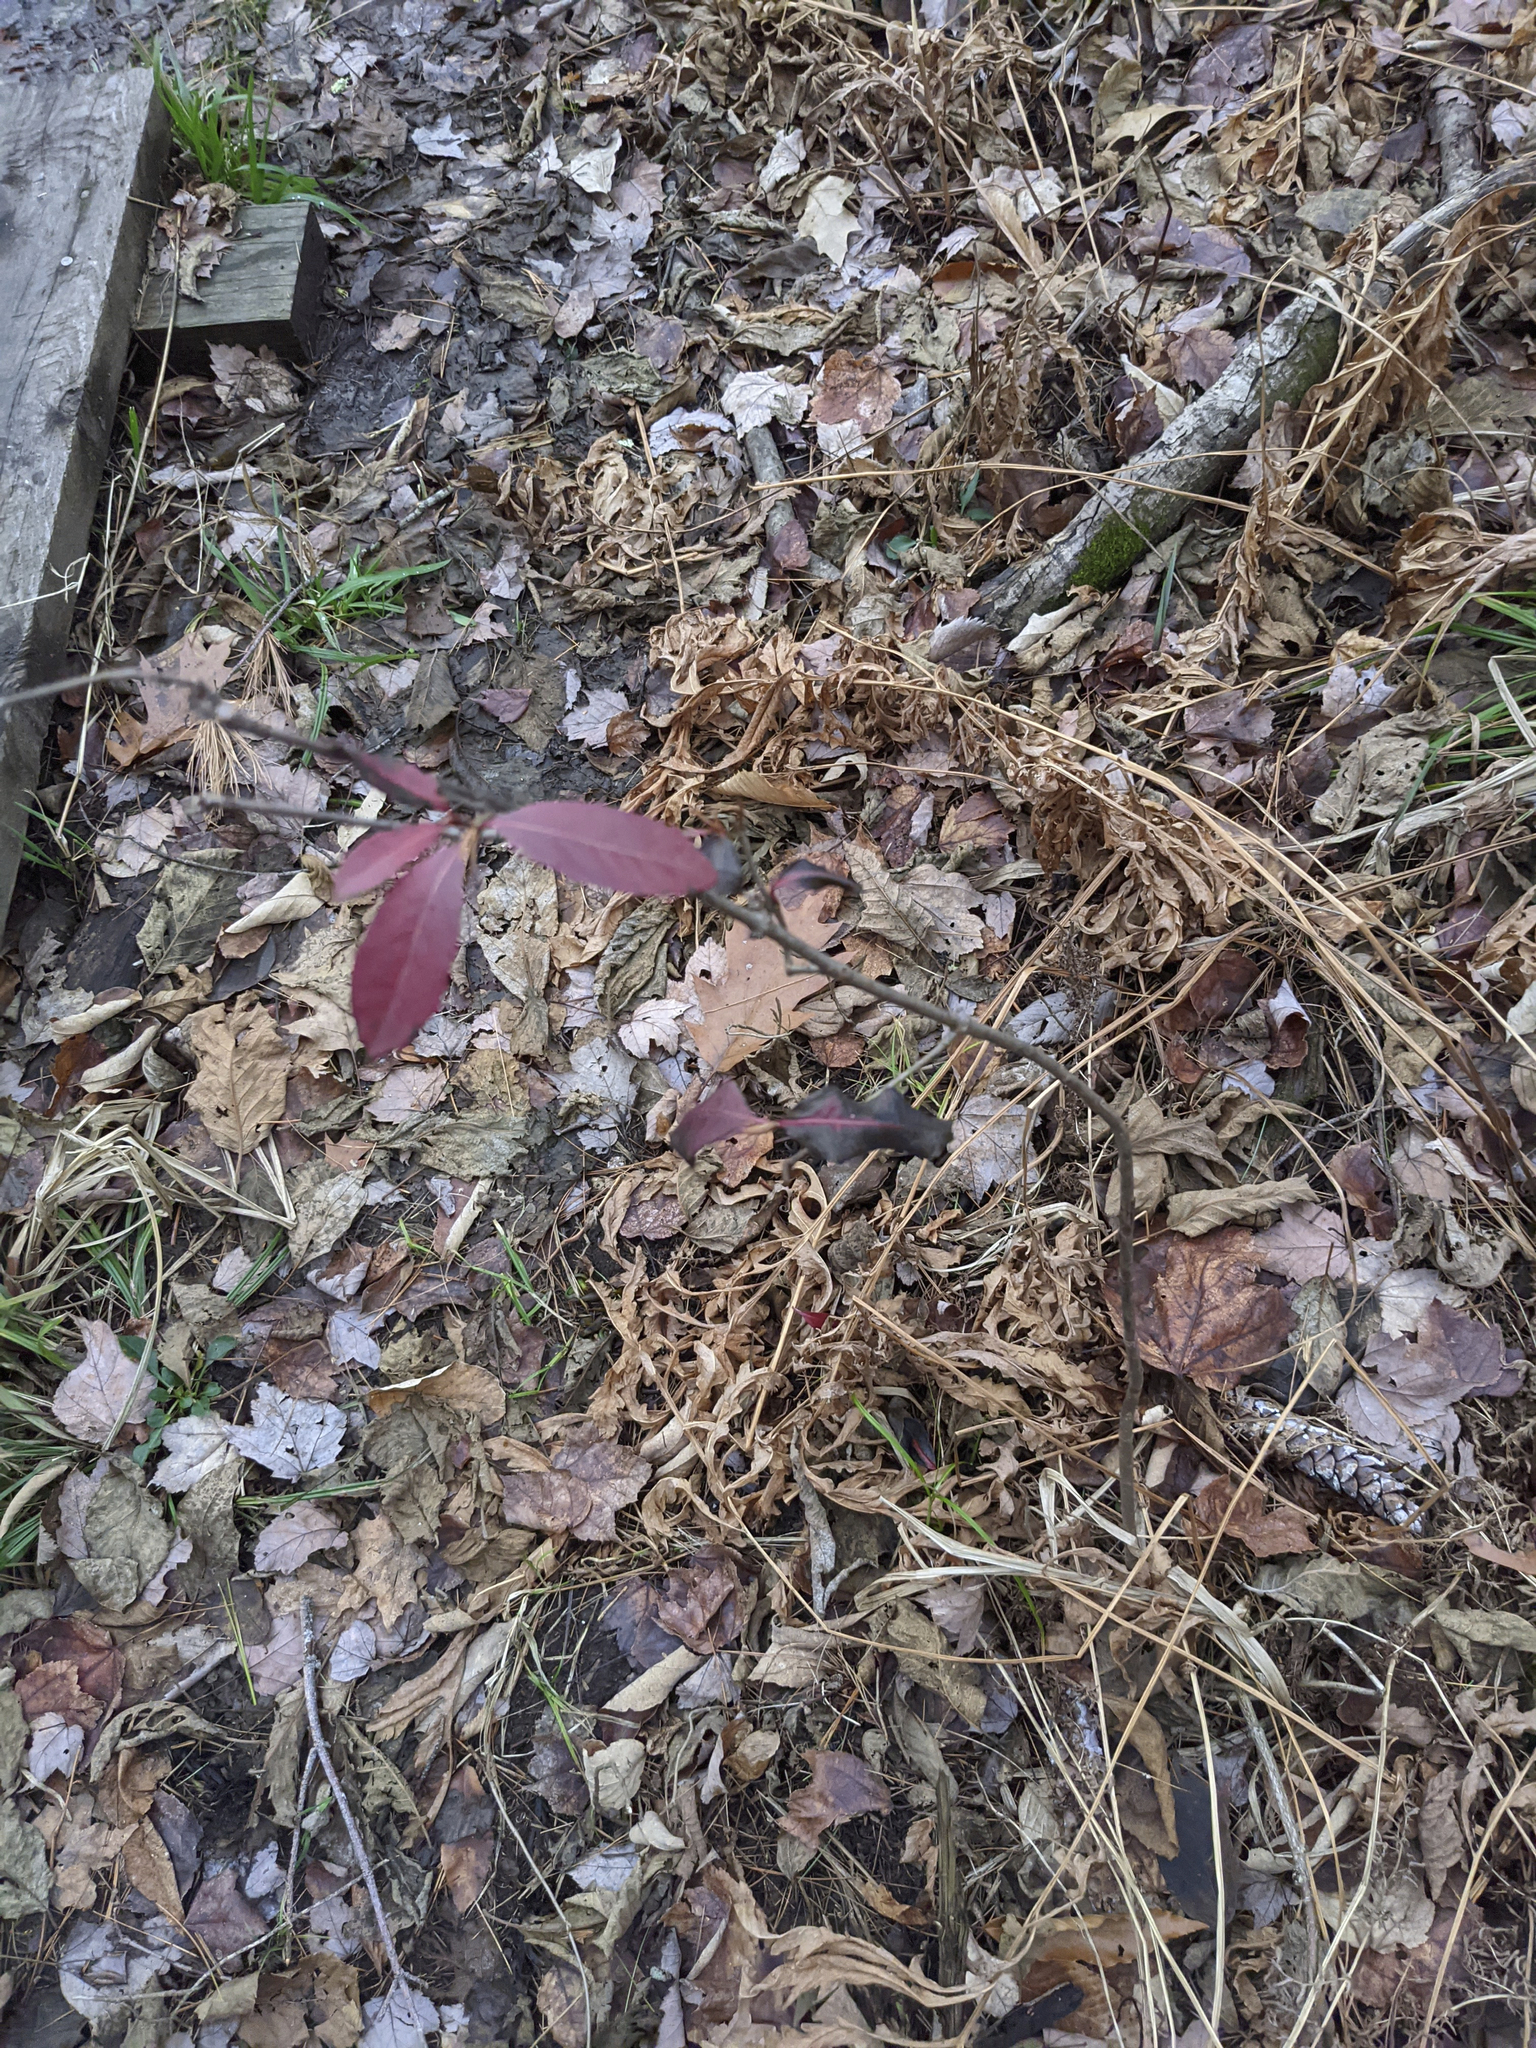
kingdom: Plantae
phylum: Tracheophyta
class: Magnoliopsida
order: Dipsacales
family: Viburnaceae
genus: Viburnum
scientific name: Viburnum cassinoides
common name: Swamp haw
